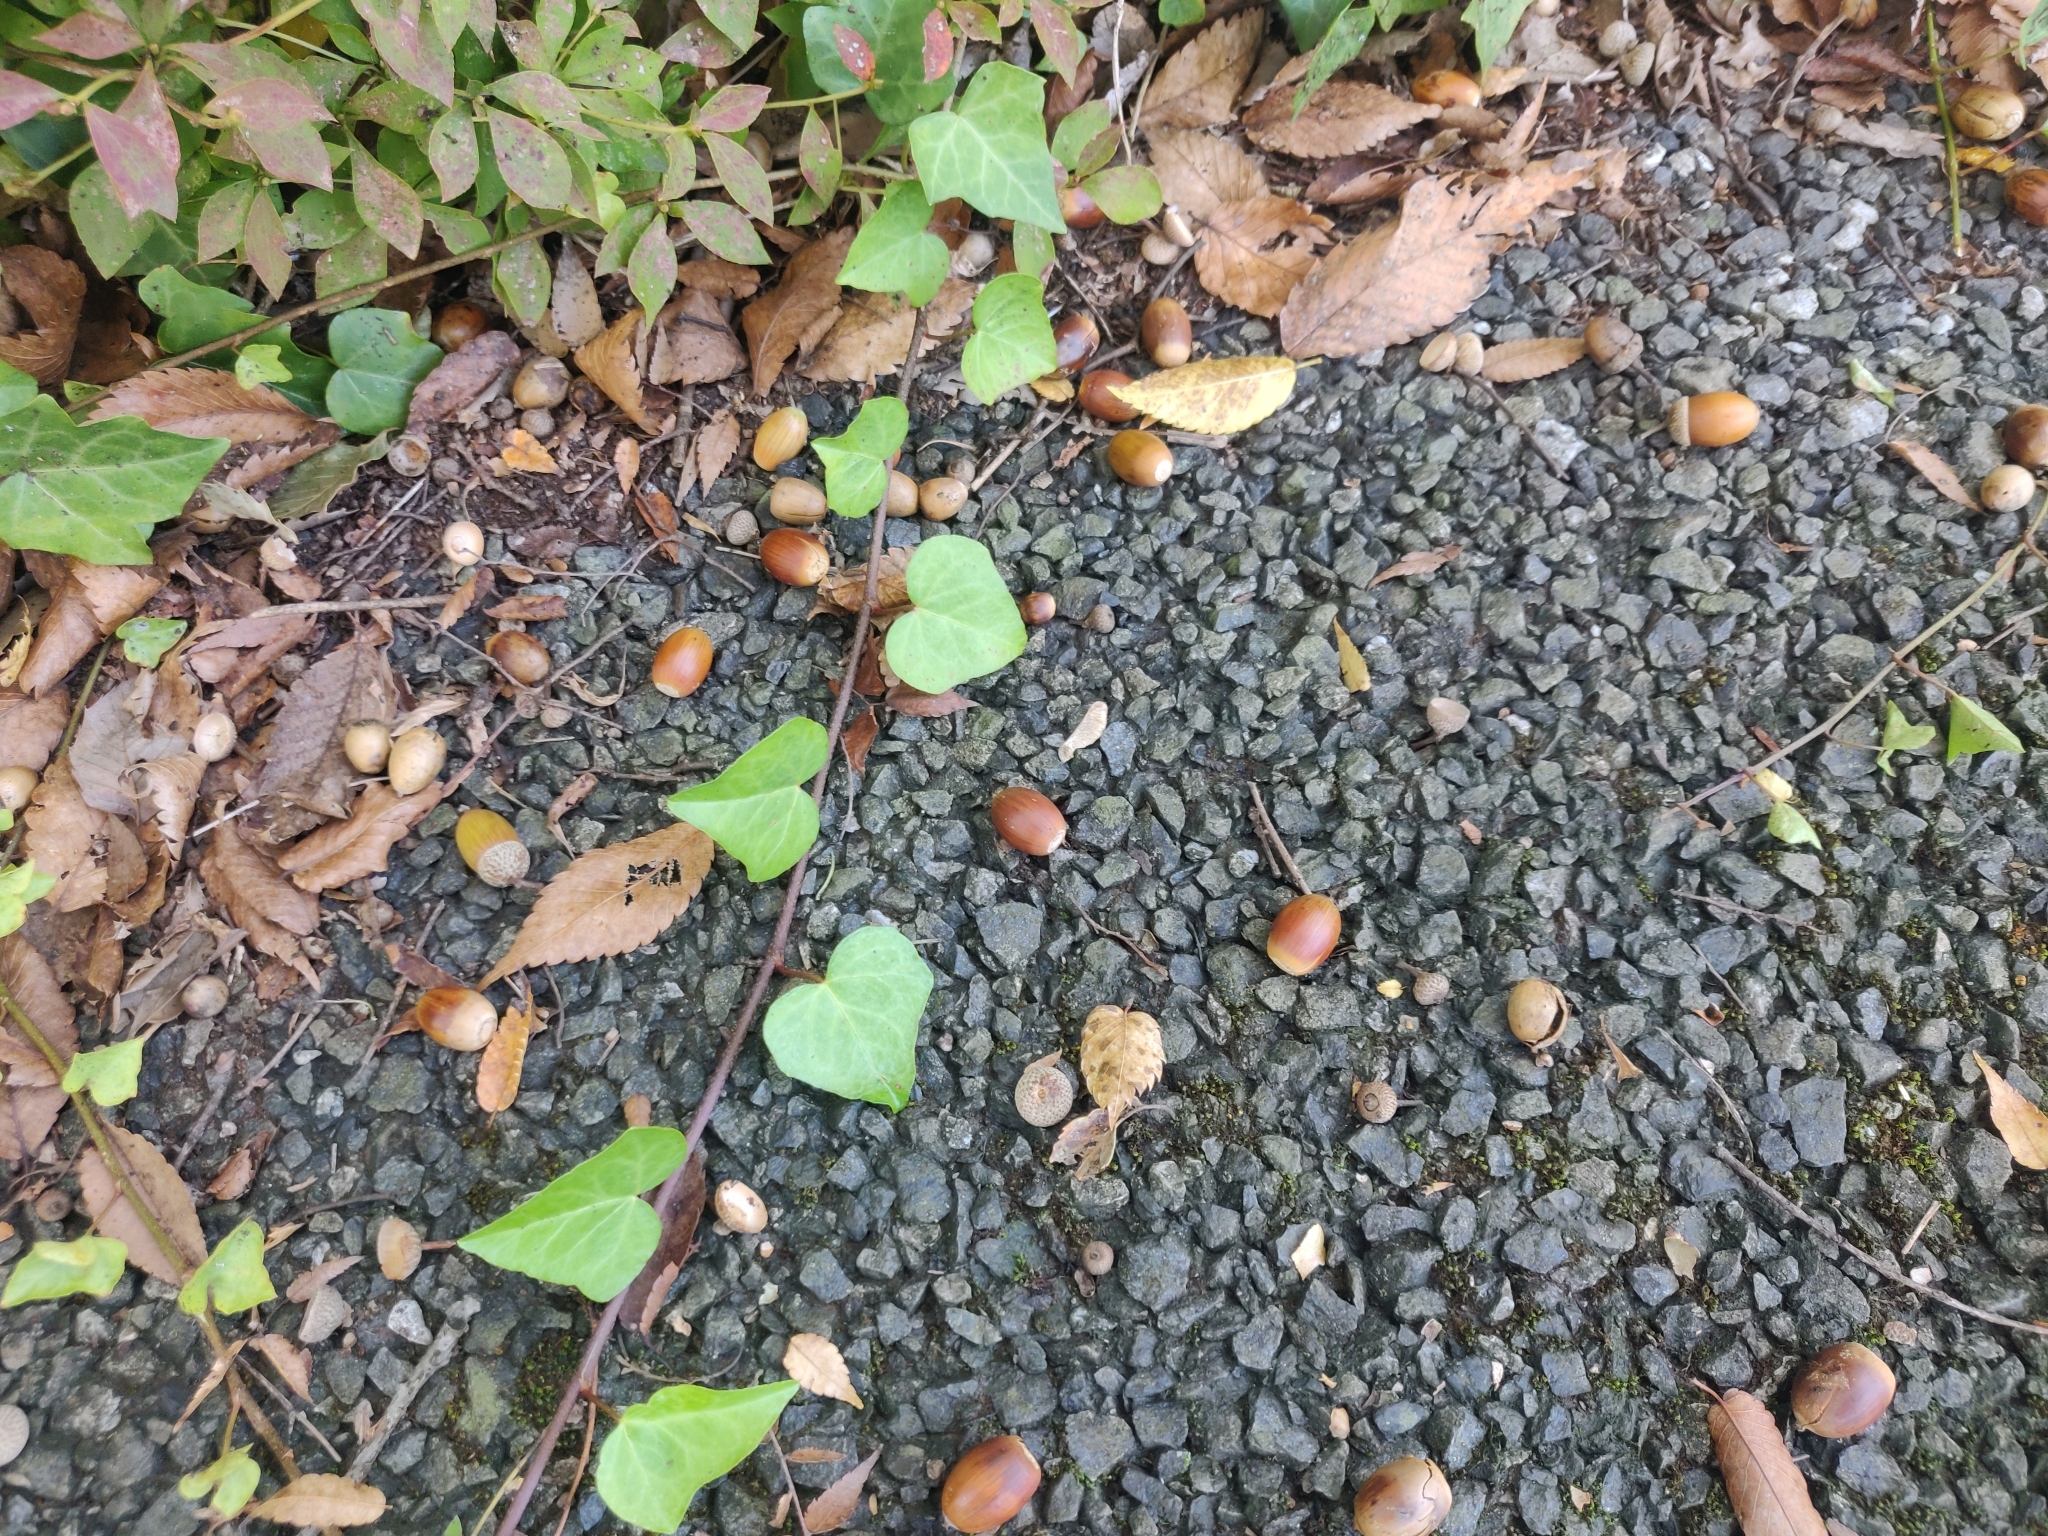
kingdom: Plantae
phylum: Tracheophyta
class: Magnoliopsida
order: Fagales
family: Fagaceae
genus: Quercus
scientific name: Quercus serrata
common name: Bao li
